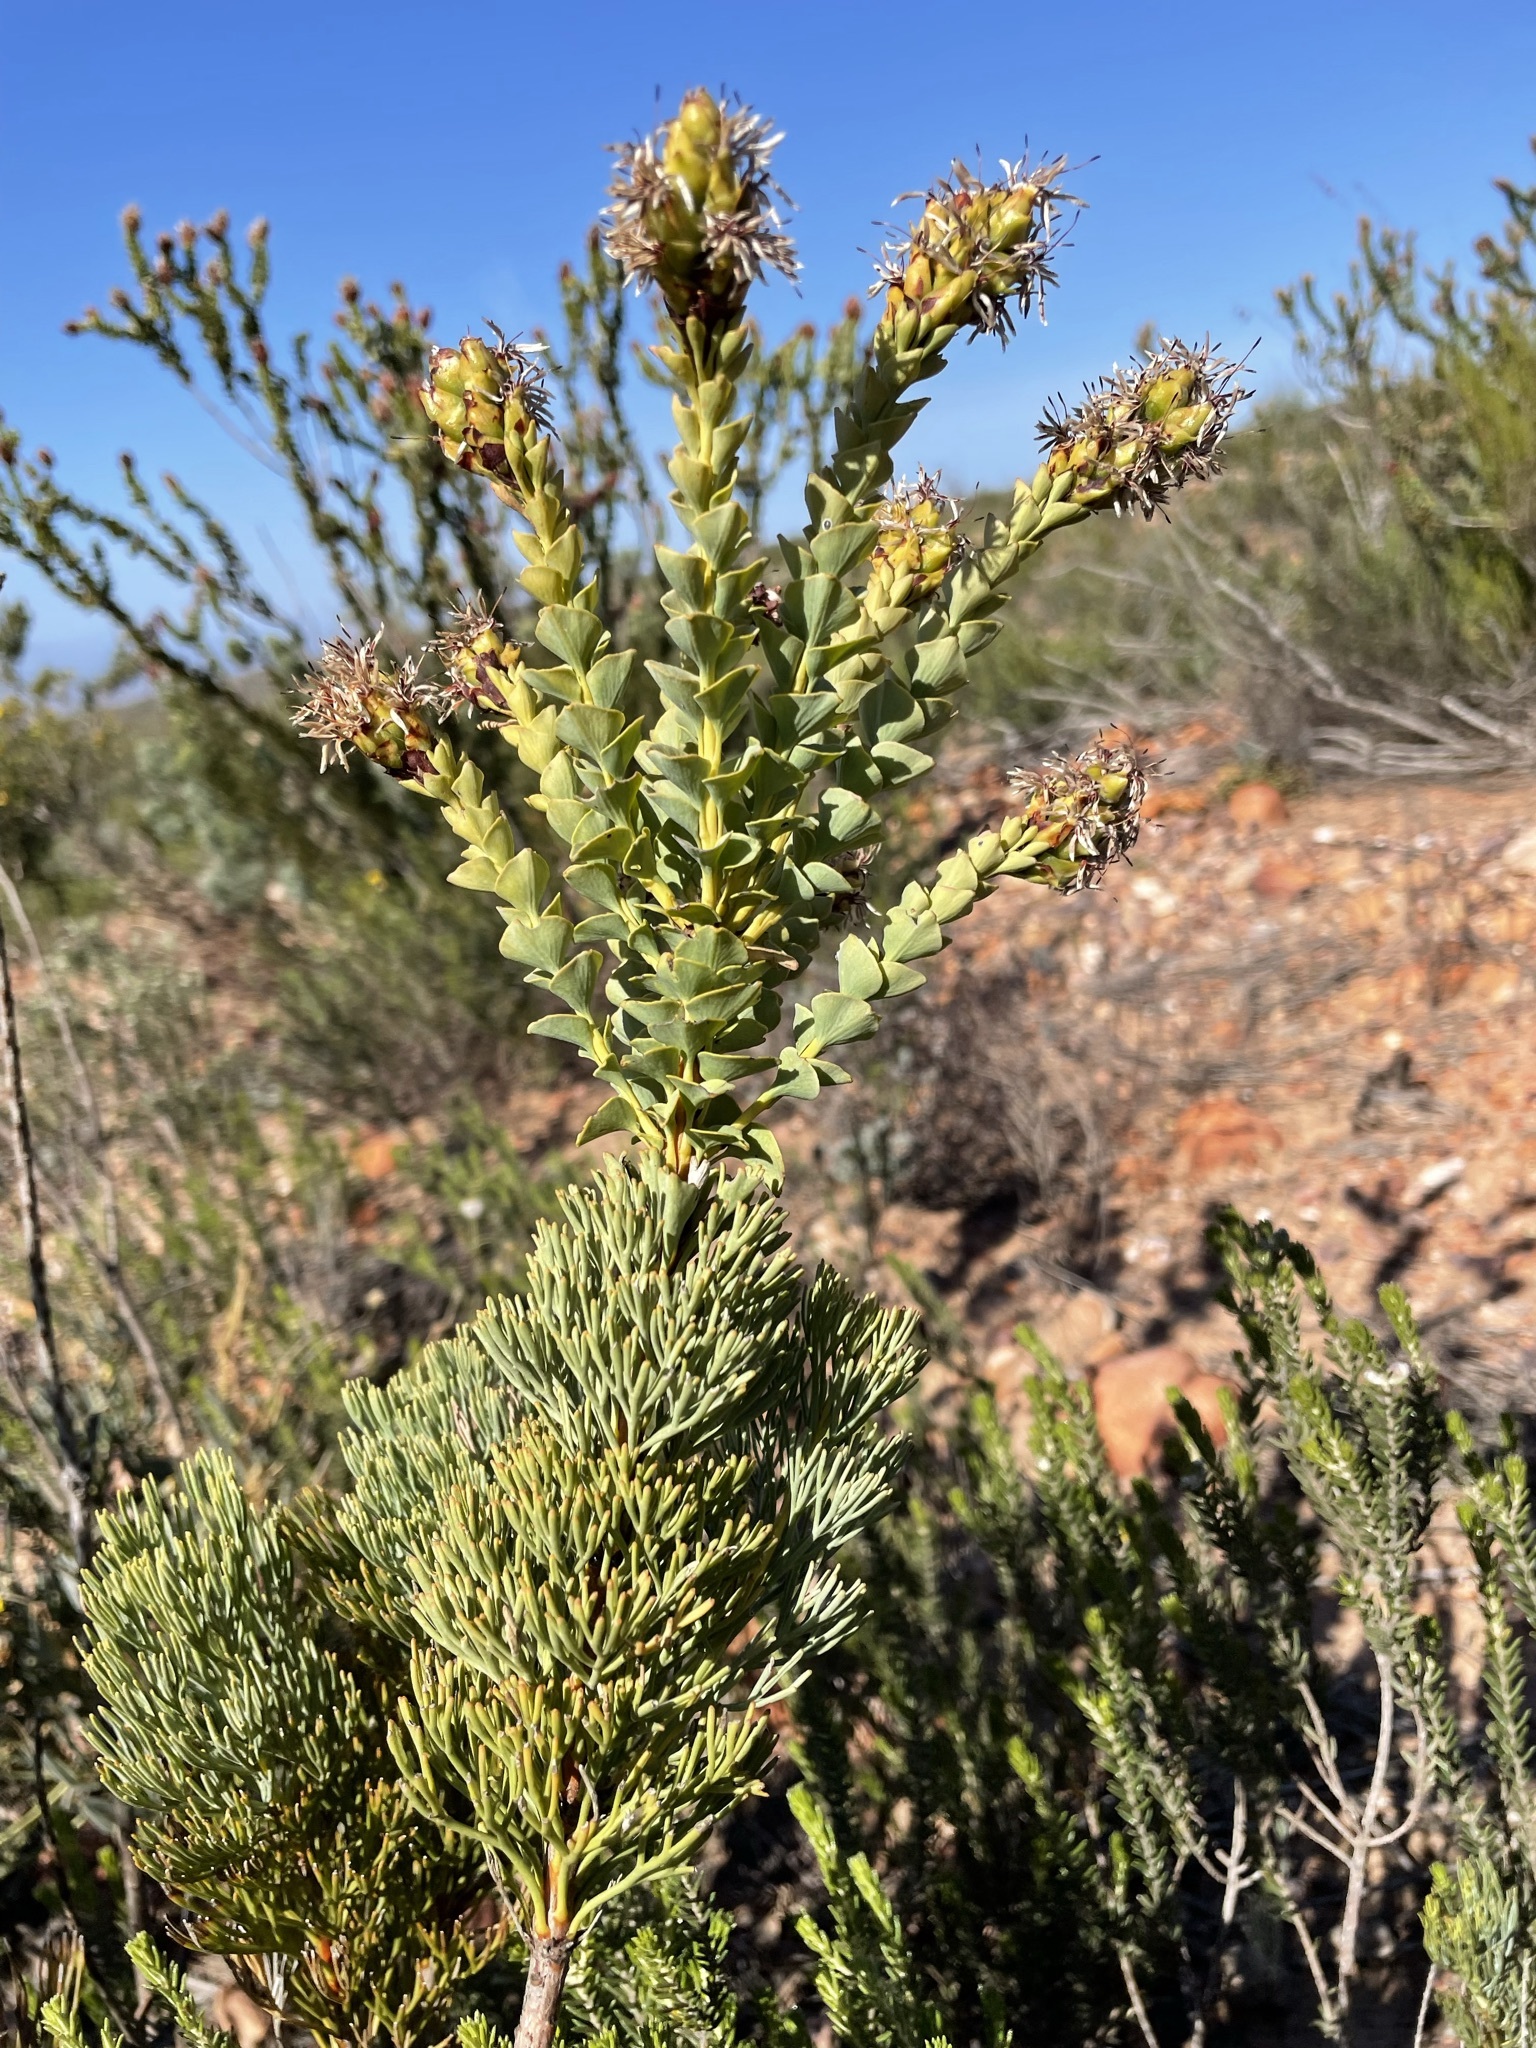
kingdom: Plantae
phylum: Tracheophyta
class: Magnoliopsida
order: Proteales
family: Proteaceae
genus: Paranomus
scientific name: Paranomus roodebergensis
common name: Honey-scented sceptre
